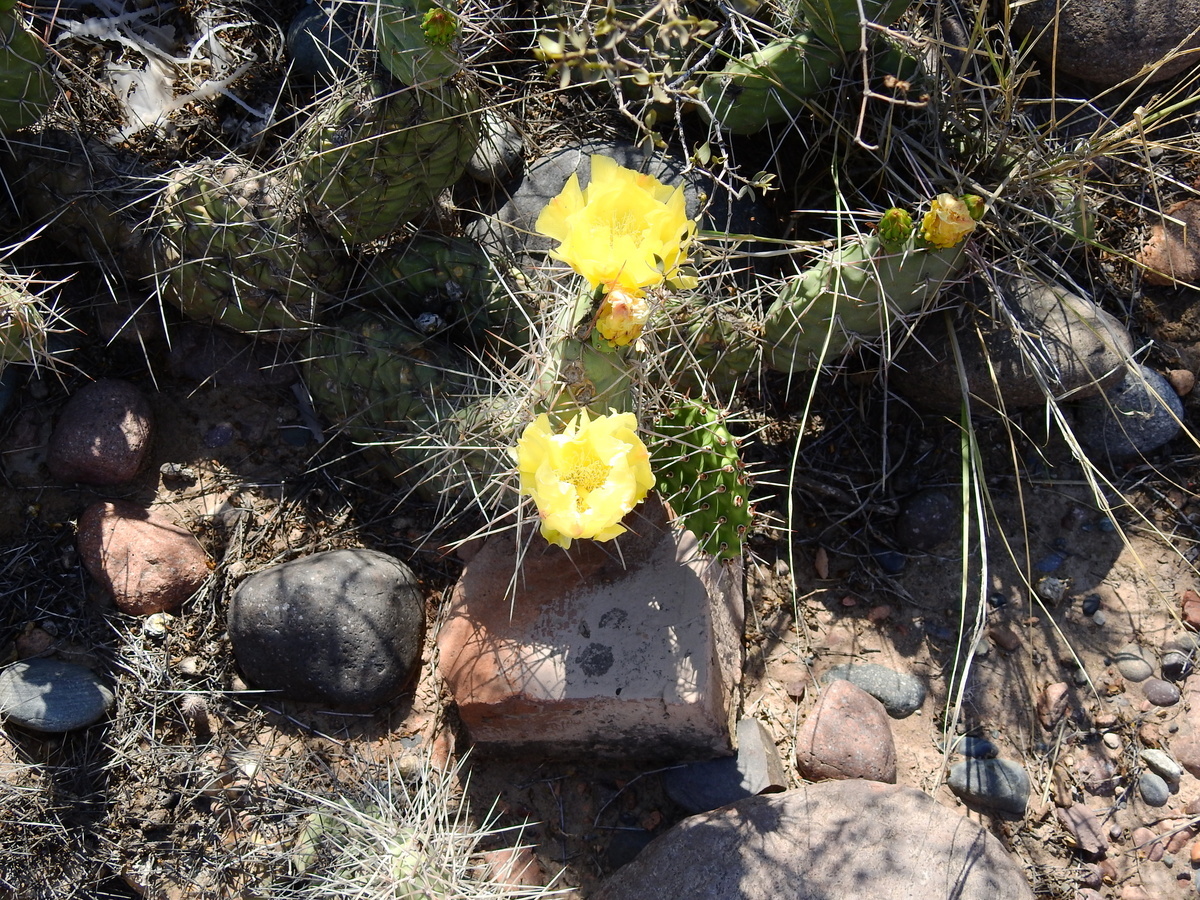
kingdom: Plantae
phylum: Tracheophyta
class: Magnoliopsida
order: Caryophyllales
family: Cactaceae
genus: Opuntia
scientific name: Opuntia sulphurea
